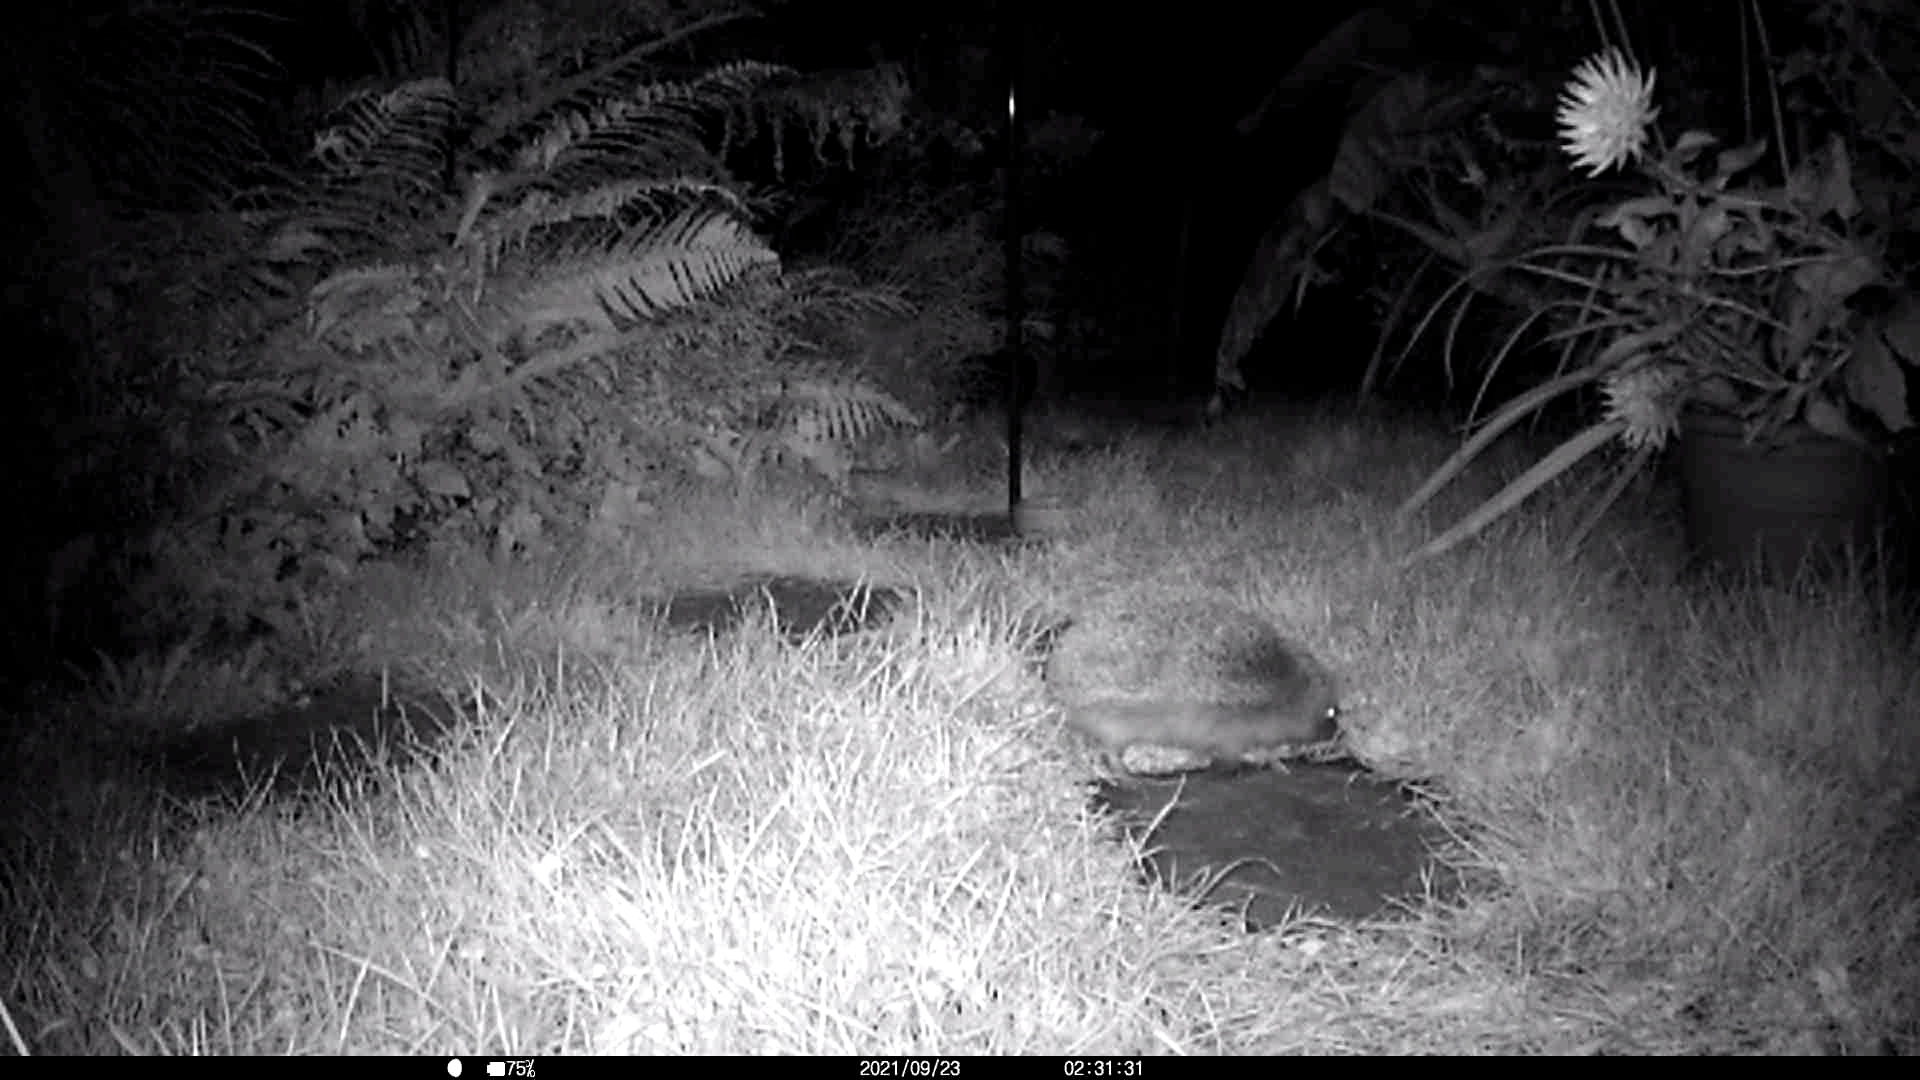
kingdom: Animalia
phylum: Chordata
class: Mammalia
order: Erinaceomorpha
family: Erinaceidae
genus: Erinaceus
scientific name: Erinaceus europaeus
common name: West european hedgehog
